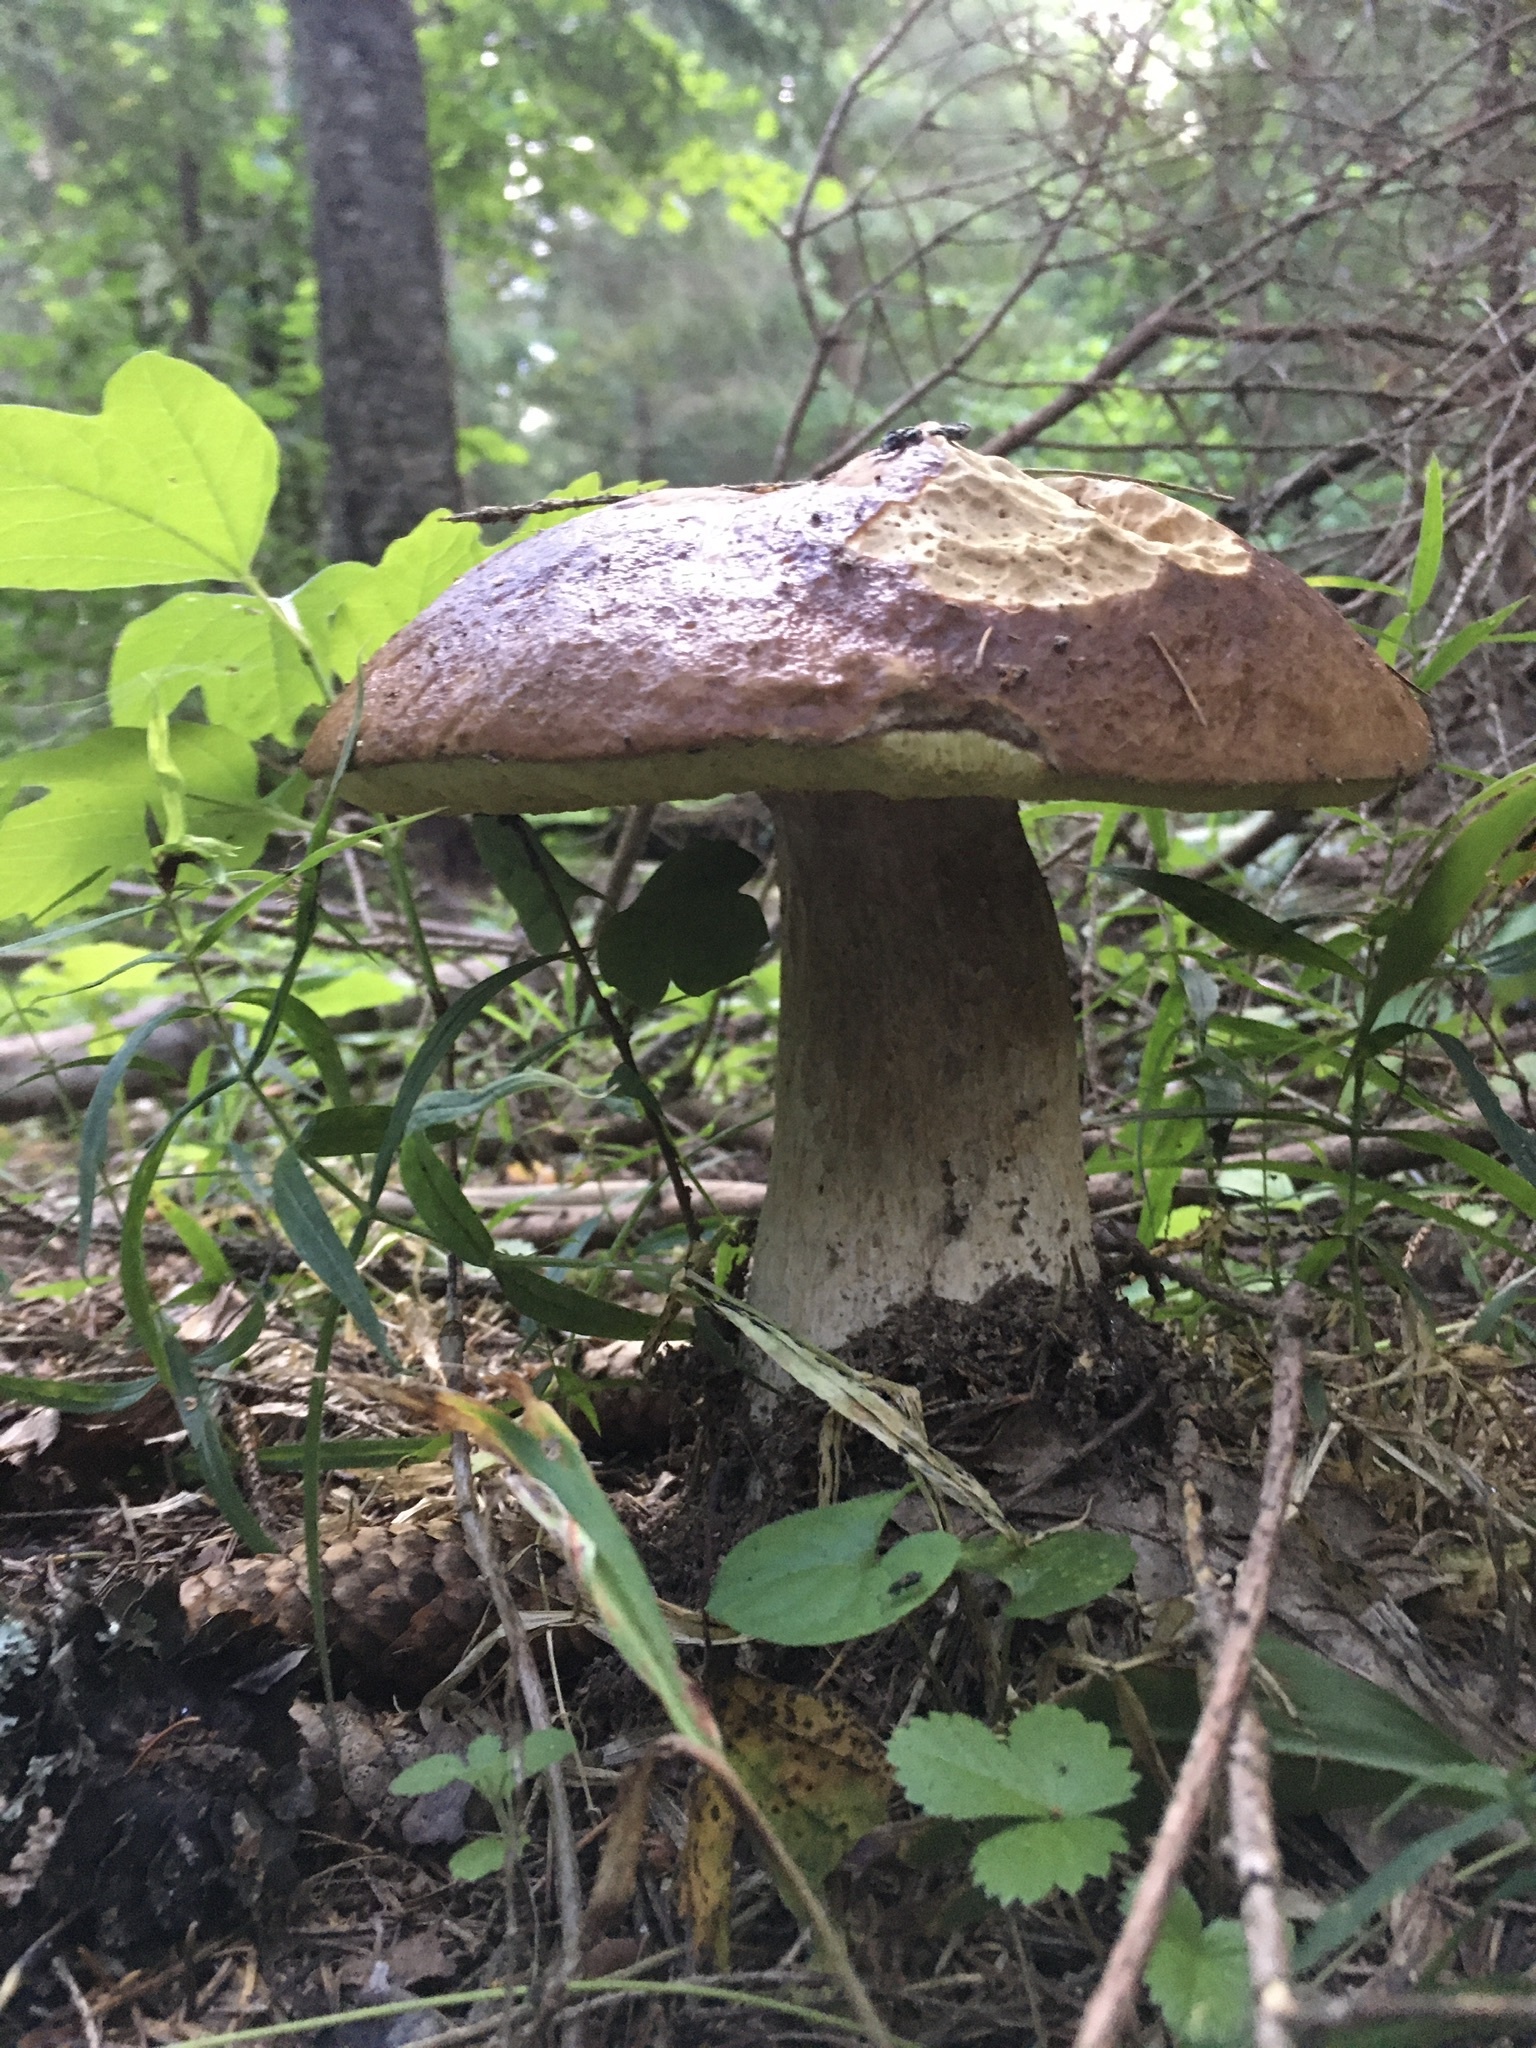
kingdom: Fungi
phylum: Basidiomycota
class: Agaricomycetes
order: Boletales
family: Boletaceae
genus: Boletus
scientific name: Boletus edulis
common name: Cep
